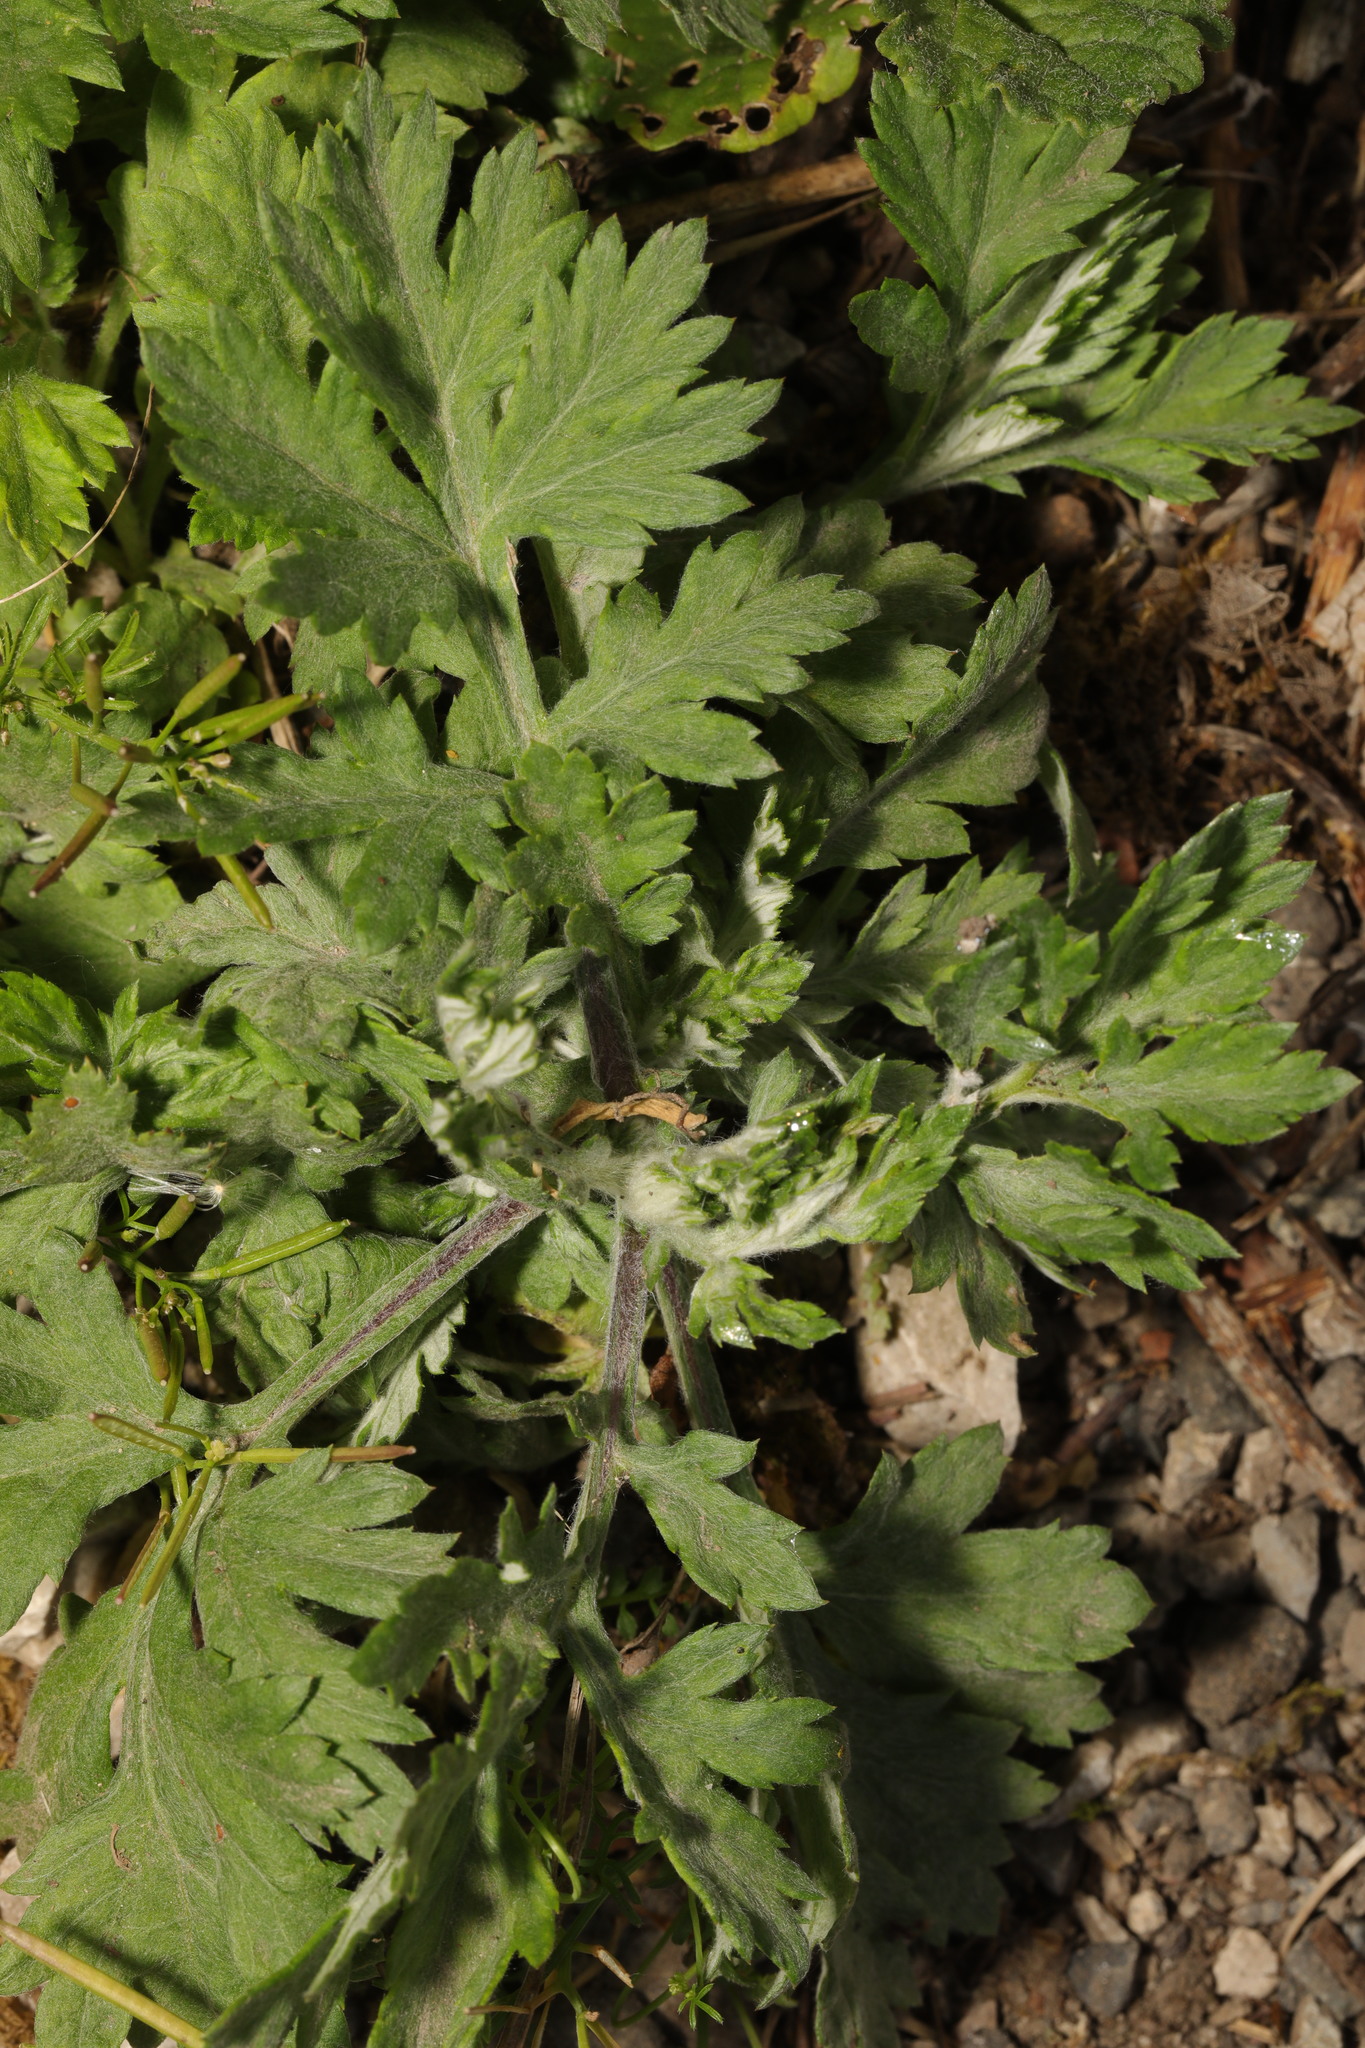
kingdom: Plantae
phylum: Tracheophyta
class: Magnoliopsida
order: Asterales
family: Asteraceae
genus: Artemisia
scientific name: Artemisia vulgaris
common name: Mugwort
